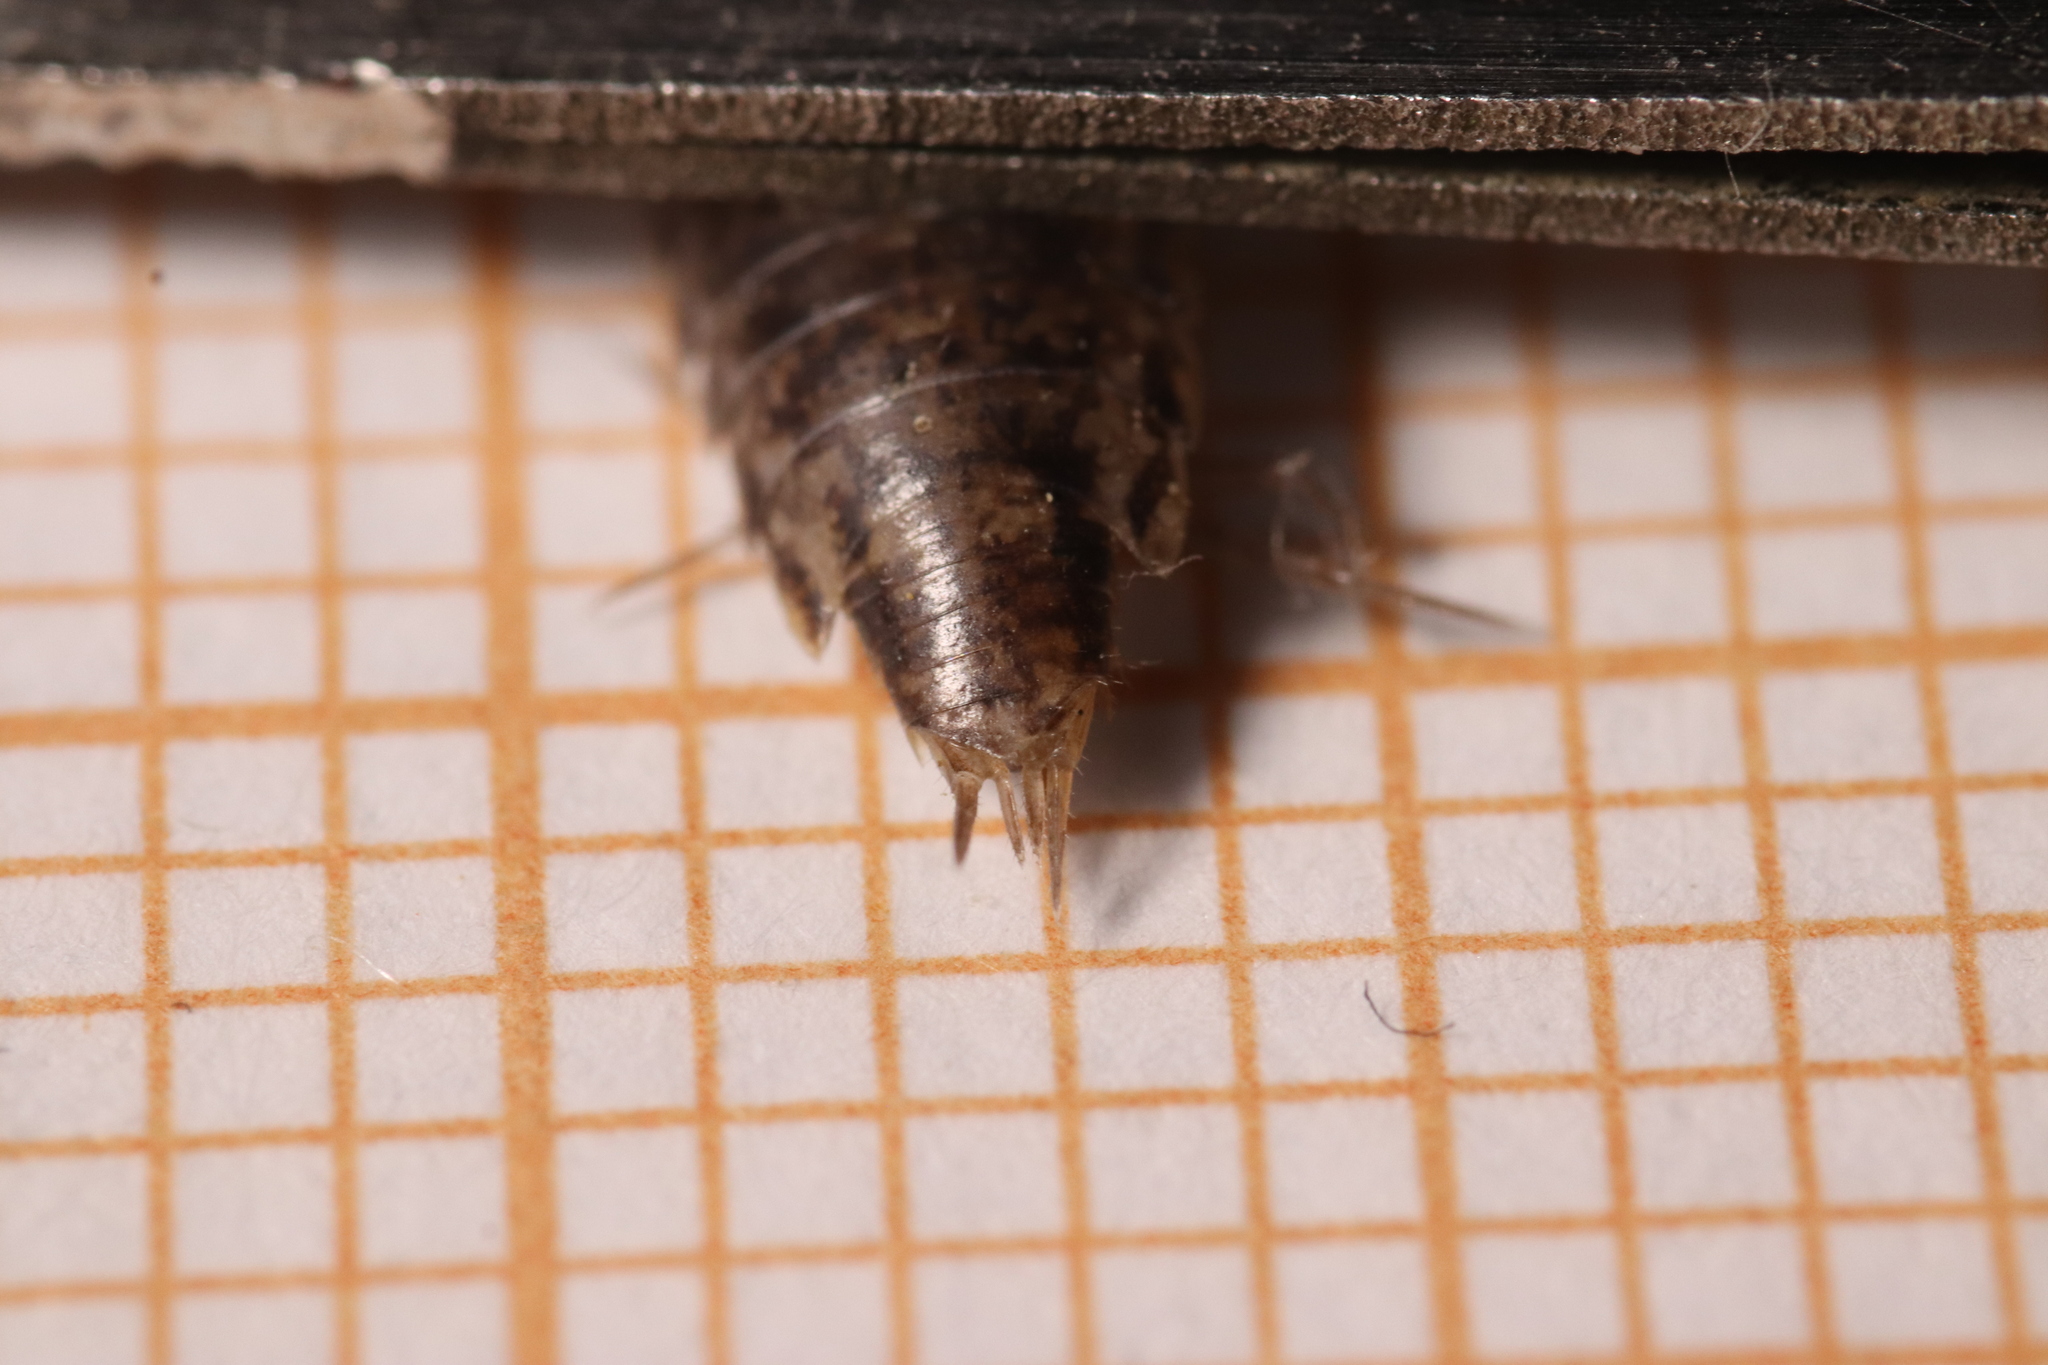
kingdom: Animalia
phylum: Arthropoda
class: Malacostraca
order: Isopoda
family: Philosciidae
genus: Chaetophiloscia
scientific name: Chaetophiloscia elongata
